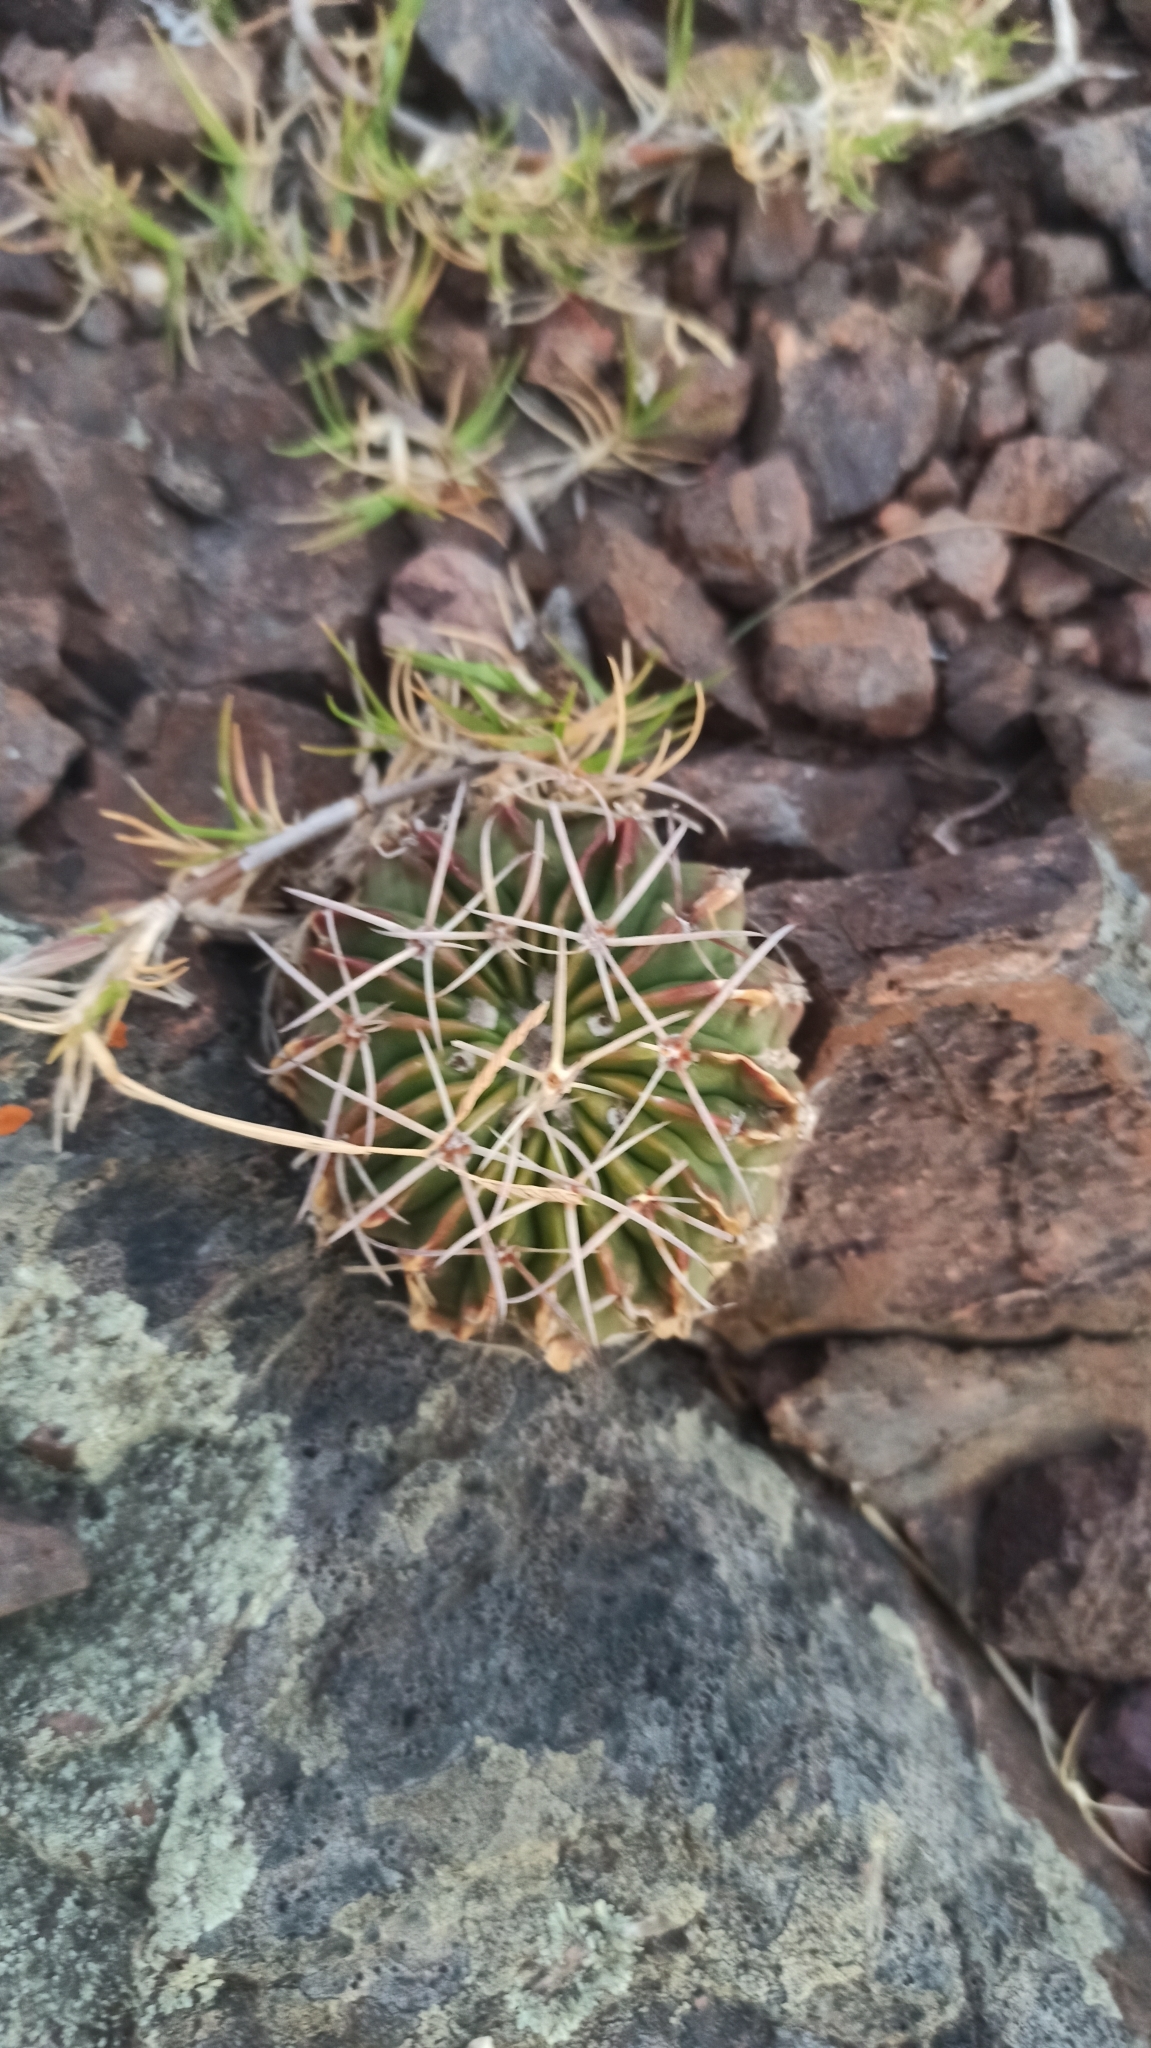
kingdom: Plantae
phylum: Tracheophyta
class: Magnoliopsida
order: Caryophyllales
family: Cactaceae
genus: Parodia
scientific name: Parodia erinacea
